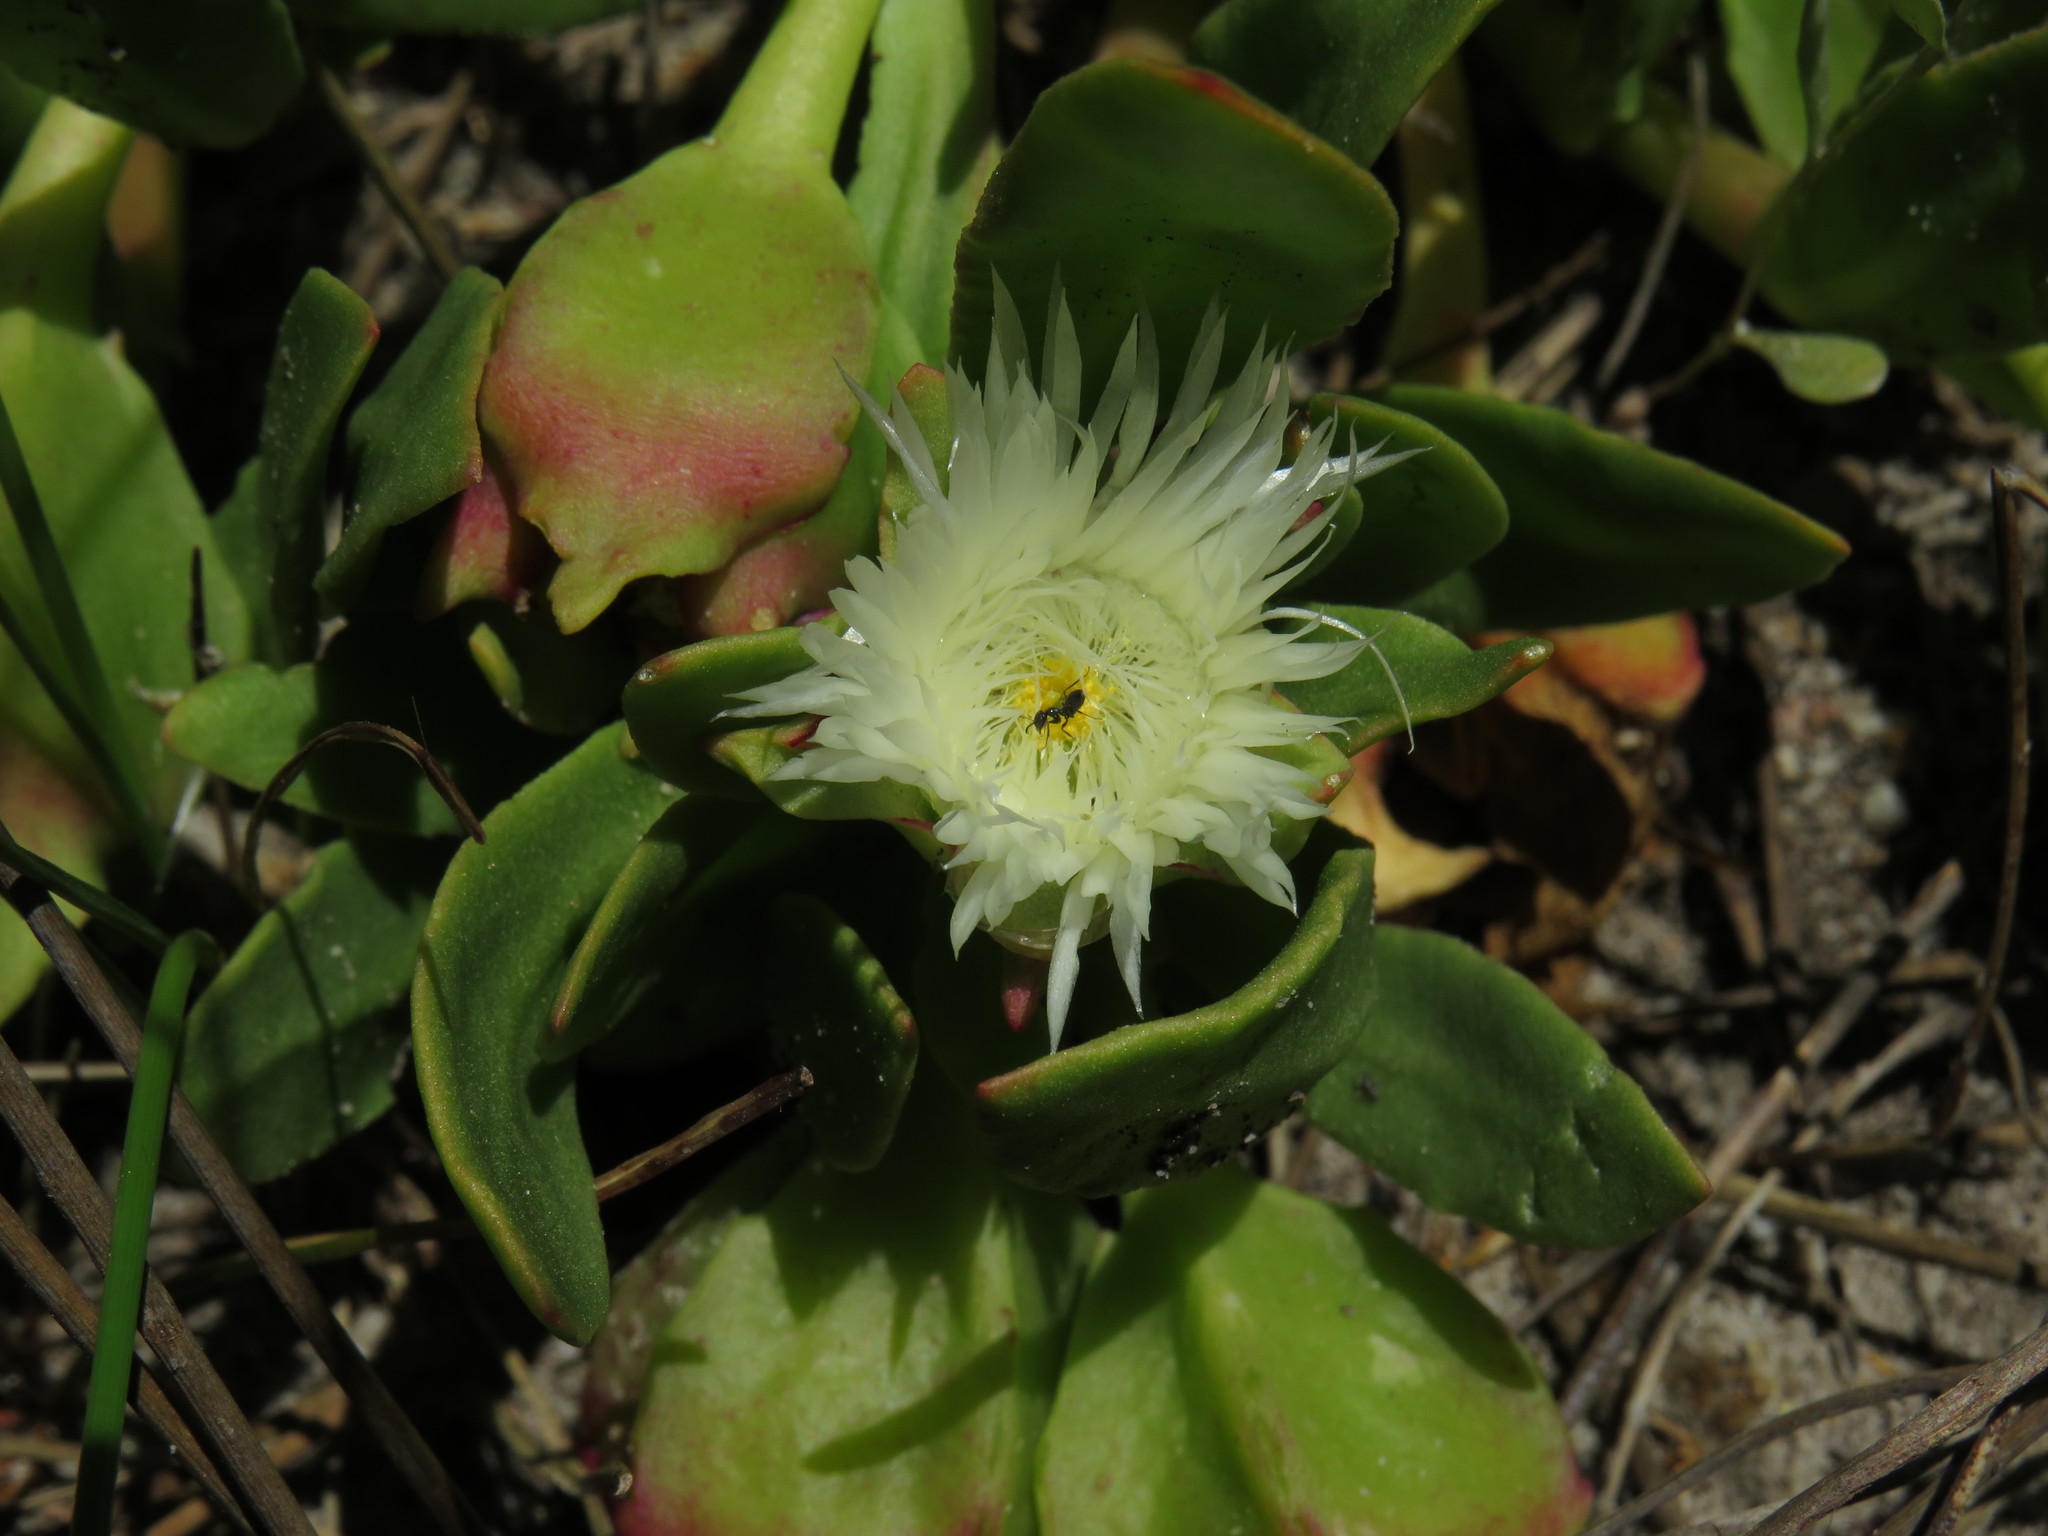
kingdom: Plantae
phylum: Tracheophyta
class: Magnoliopsida
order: Caryophyllales
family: Aizoaceae
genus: Skiatophytum
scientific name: Skiatophytum tripolium
